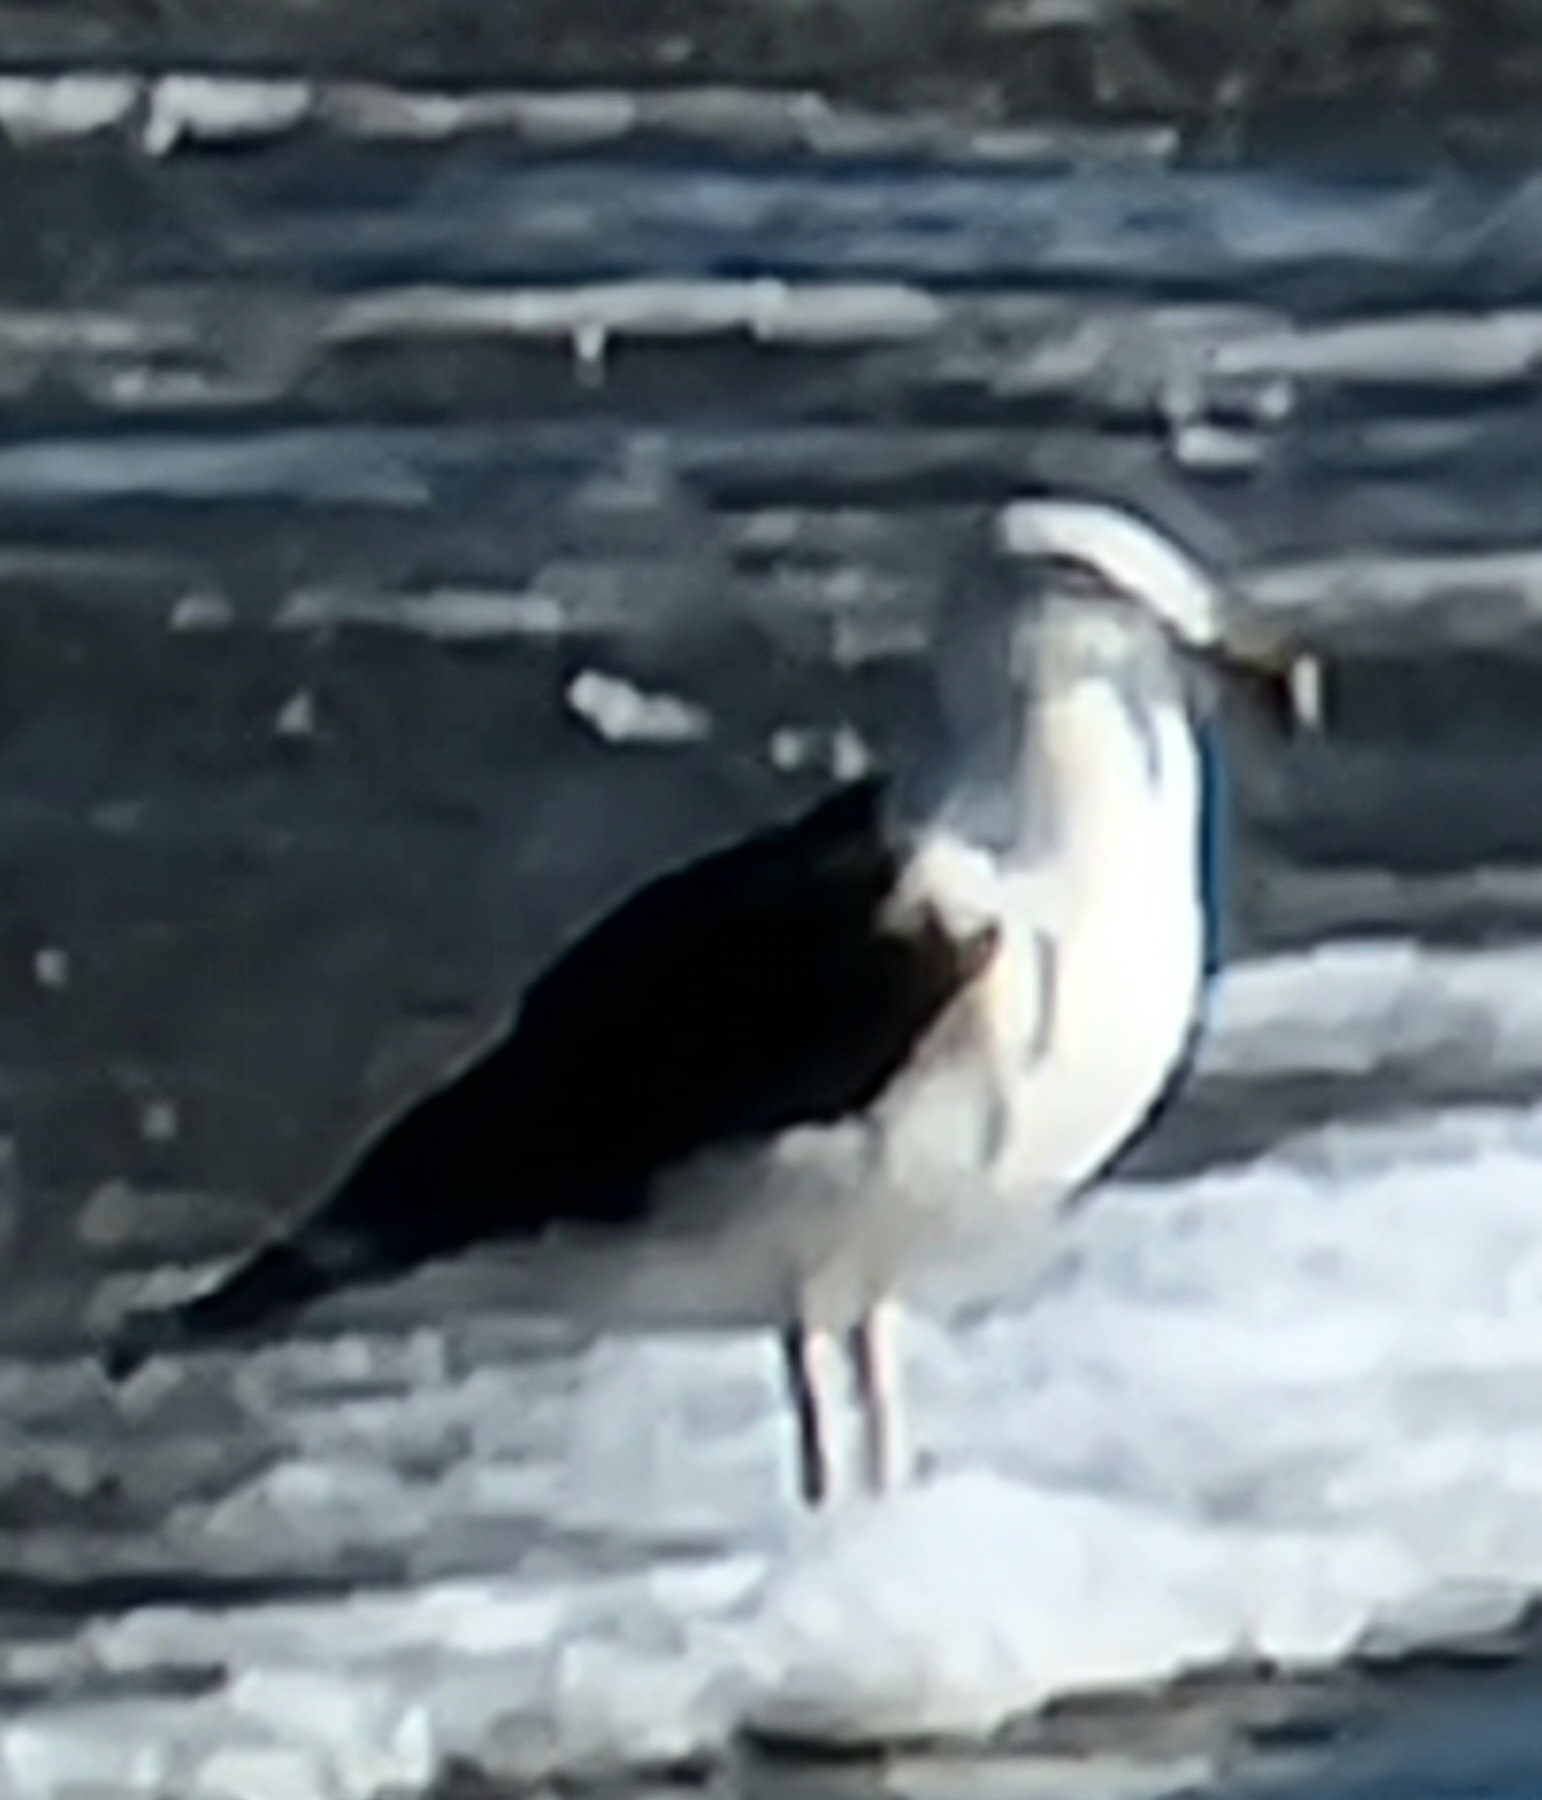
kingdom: Animalia
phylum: Chordata
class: Aves
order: Charadriiformes
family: Laridae
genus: Larus
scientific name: Larus marinus
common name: Great black-backed gull
